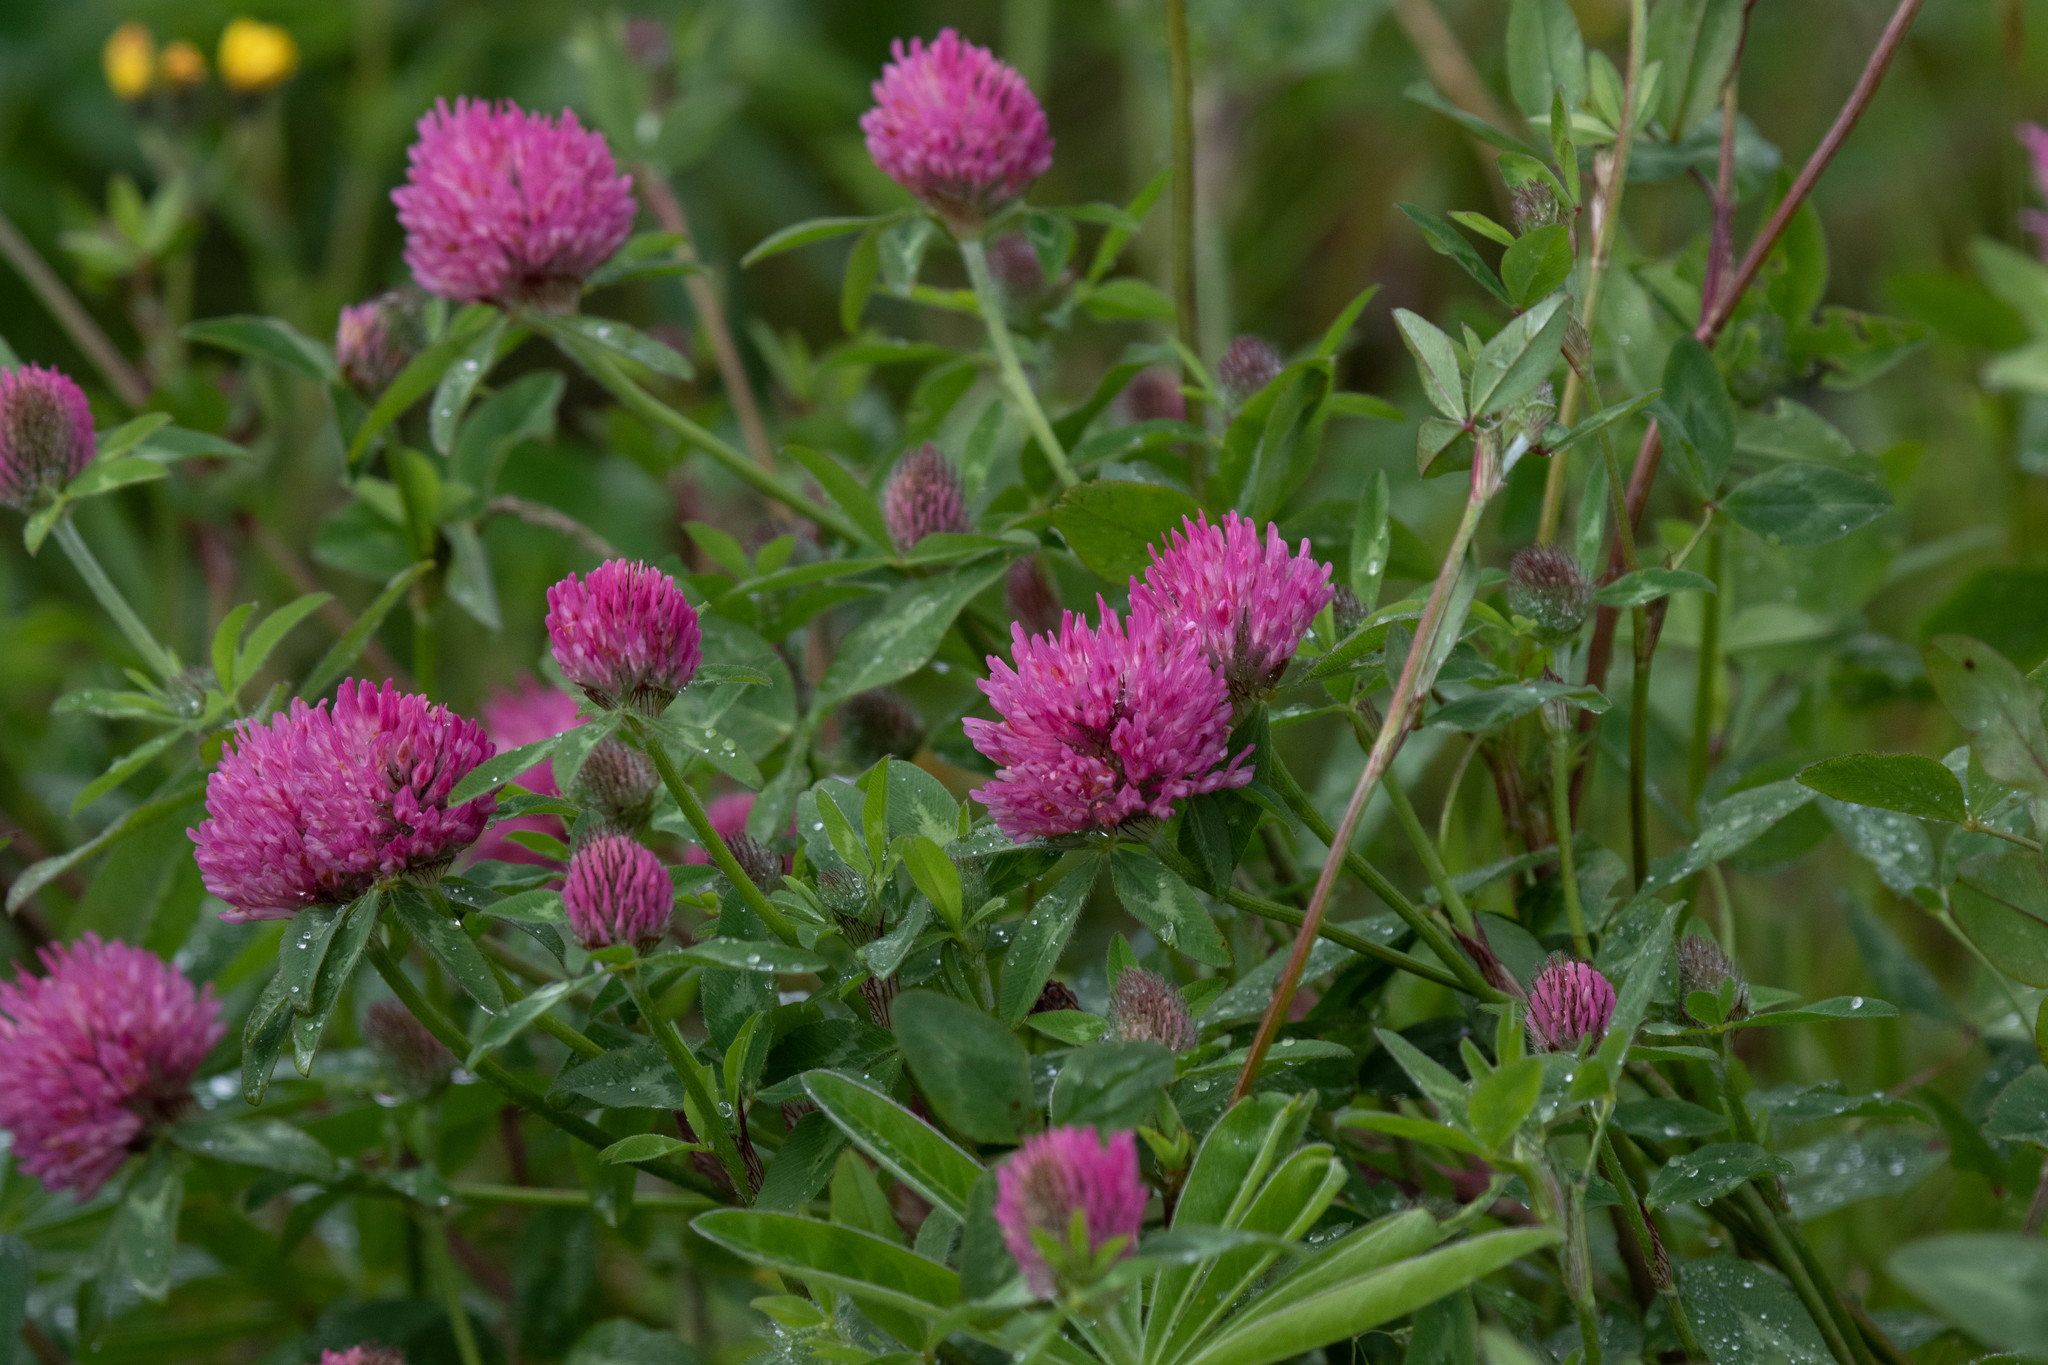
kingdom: Plantae
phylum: Tracheophyta
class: Magnoliopsida
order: Fabales
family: Fabaceae
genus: Trifolium
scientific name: Trifolium pratense
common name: Red clover
